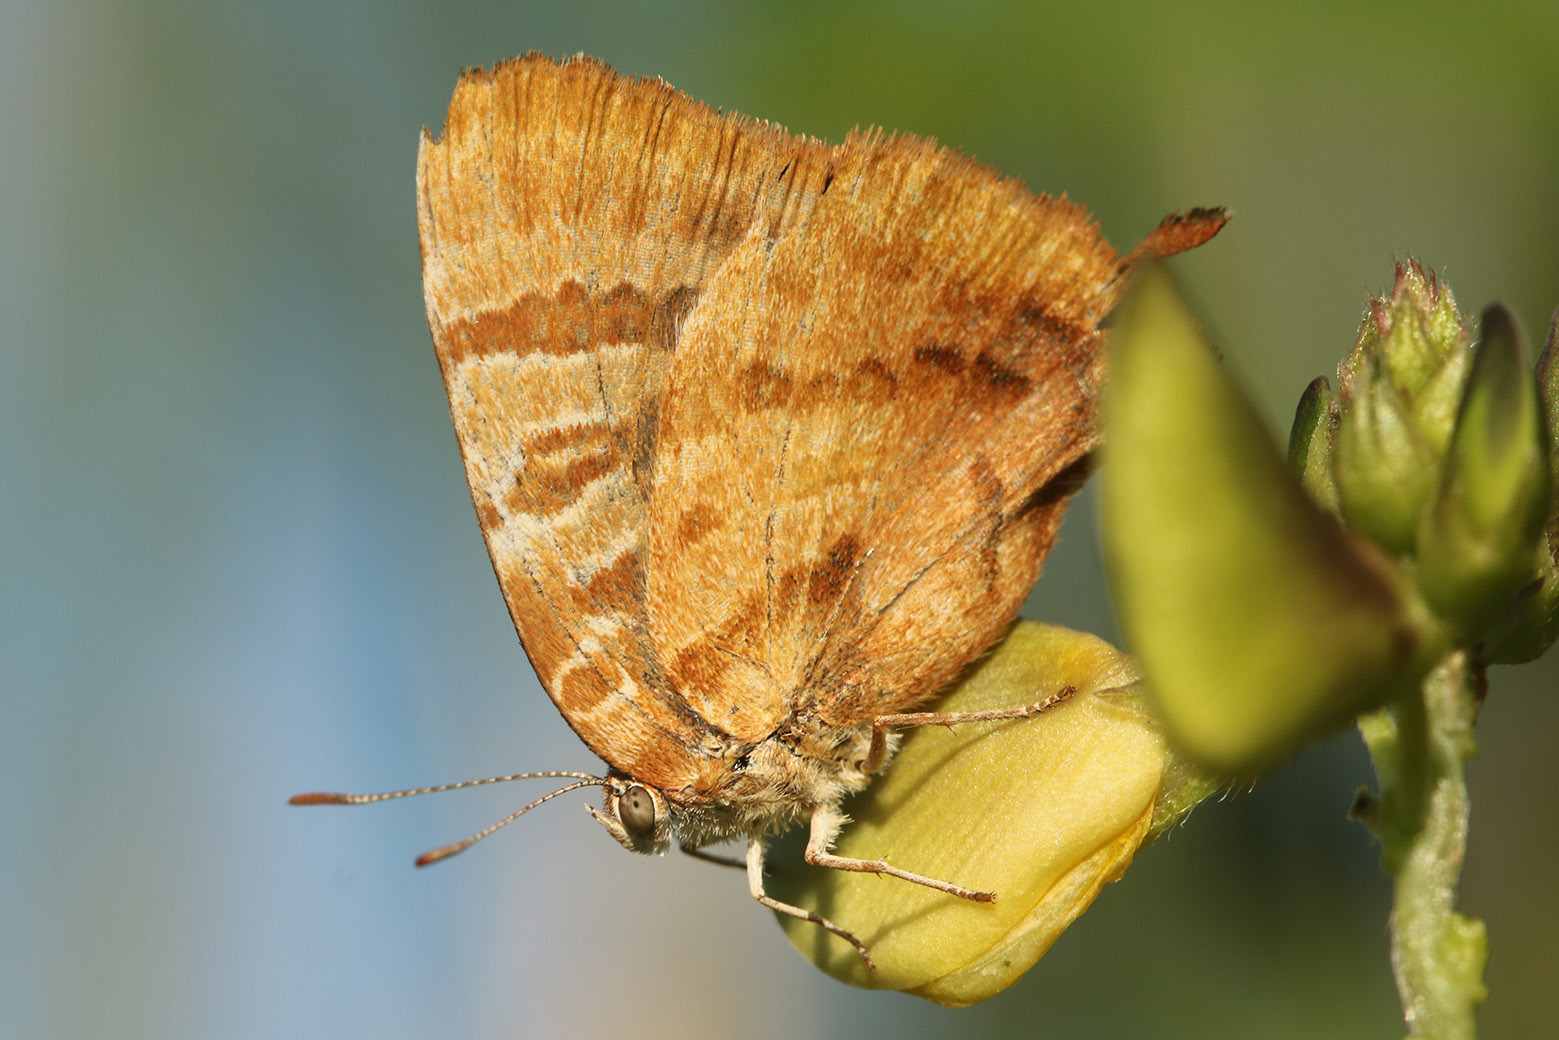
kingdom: Animalia
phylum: Arthropoda
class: Insecta
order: Lepidoptera
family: Lycaenidae
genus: Arawacus
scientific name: Arawacus ellida
